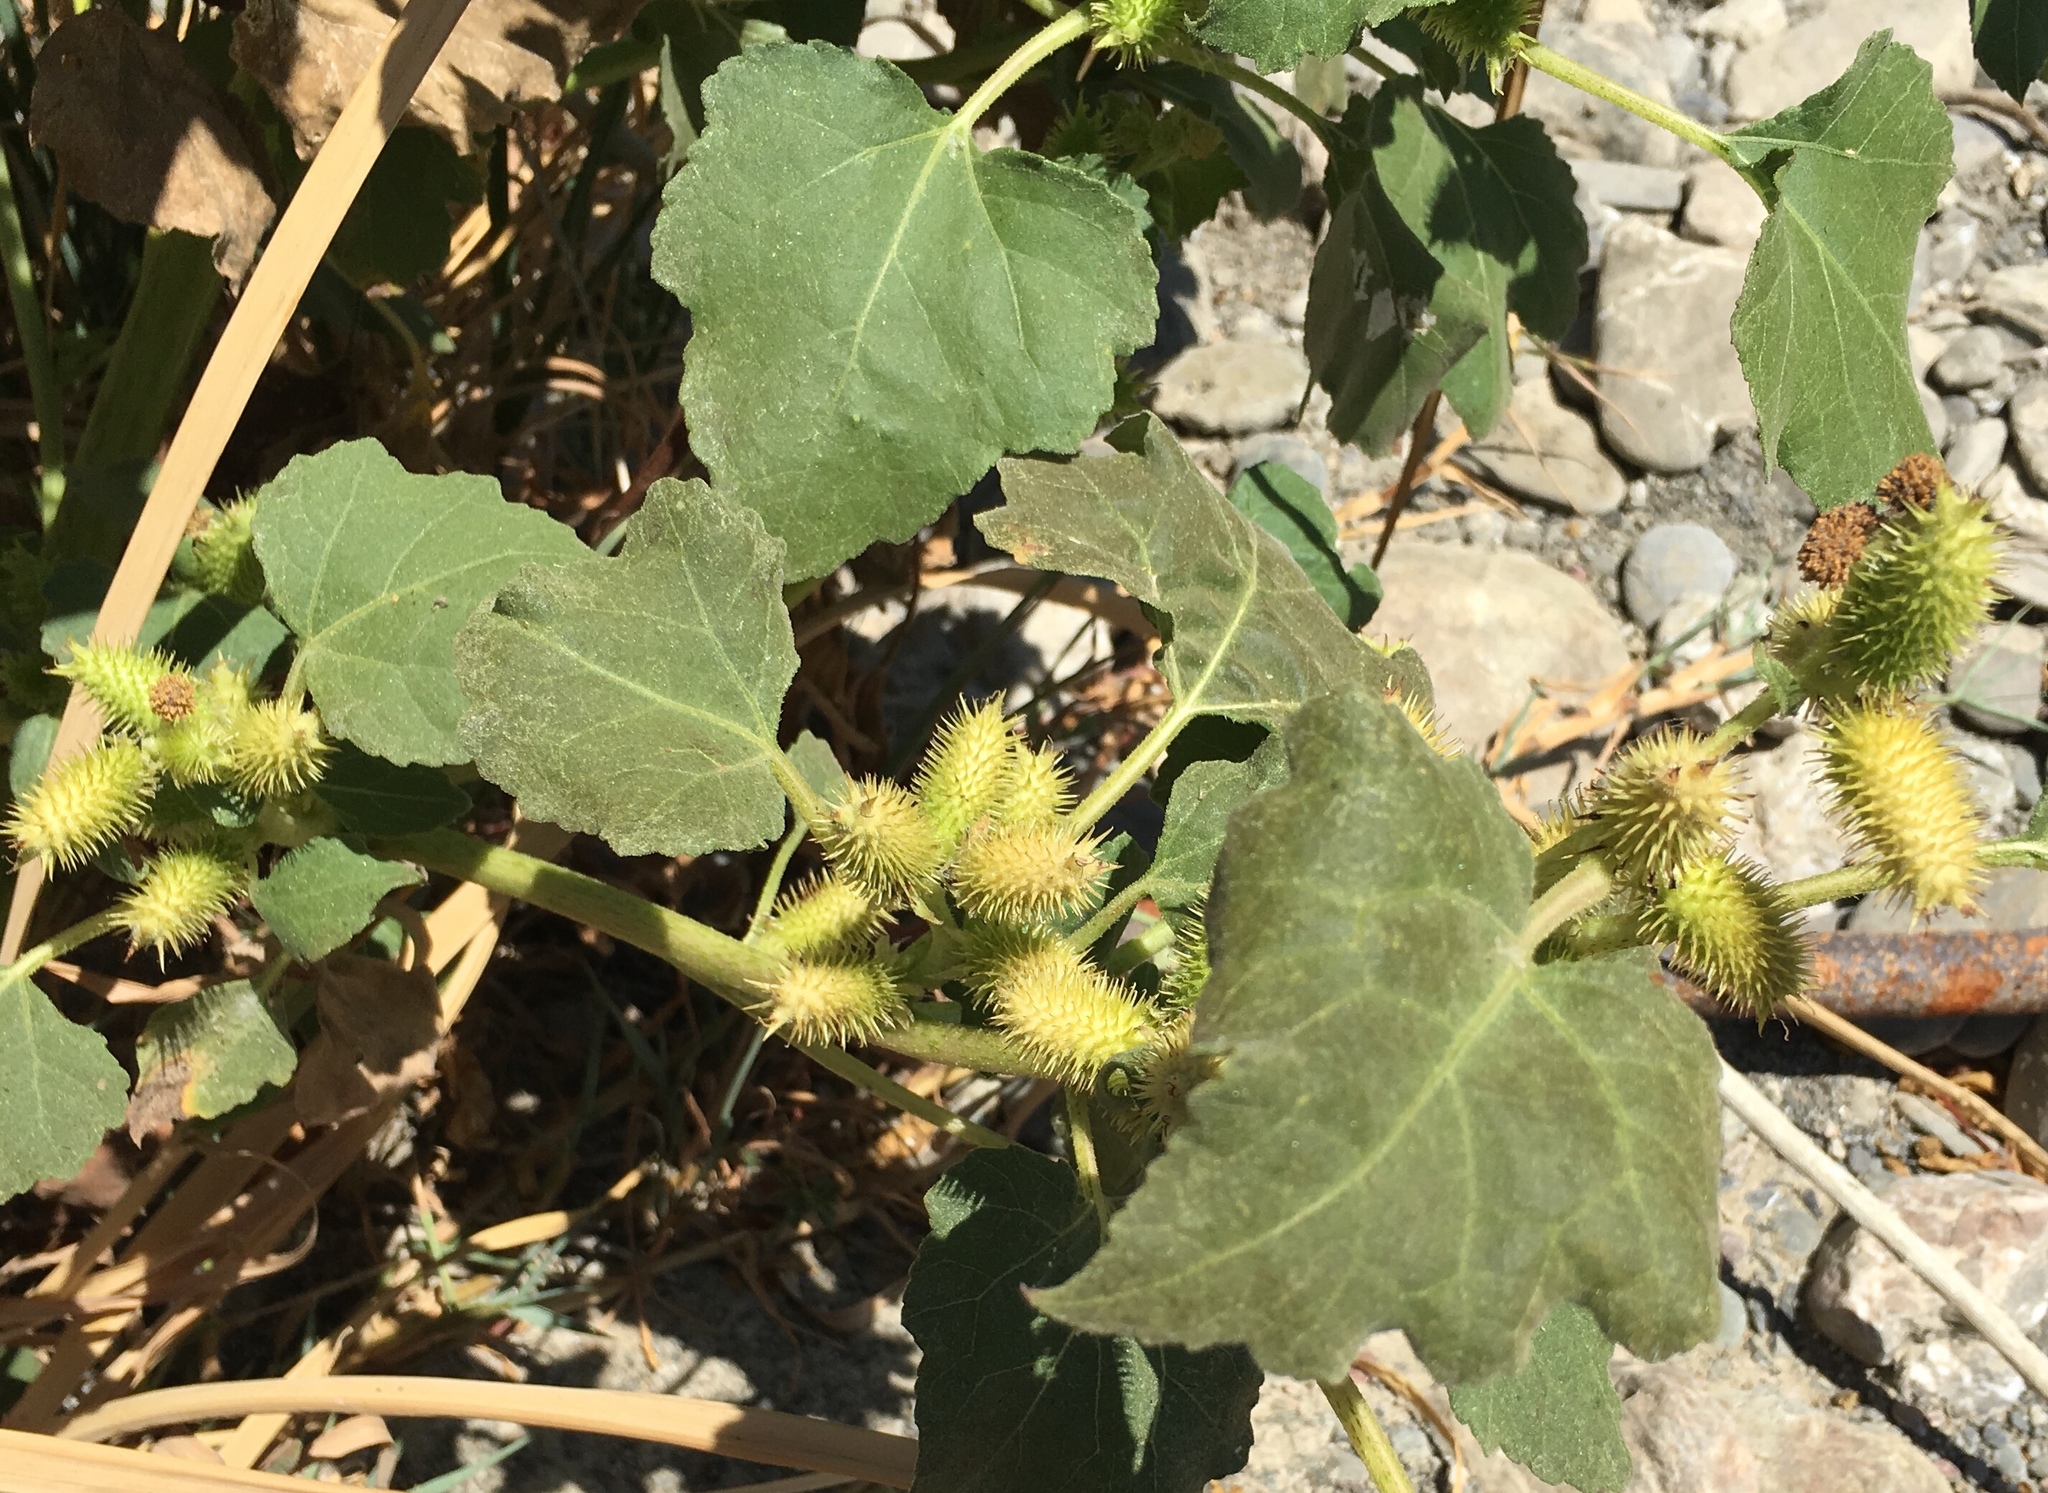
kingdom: Plantae
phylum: Tracheophyta
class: Magnoliopsida
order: Asterales
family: Asteraceae
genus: Xanthium
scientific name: Xanthium strumarium
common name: Rough cocklebur
